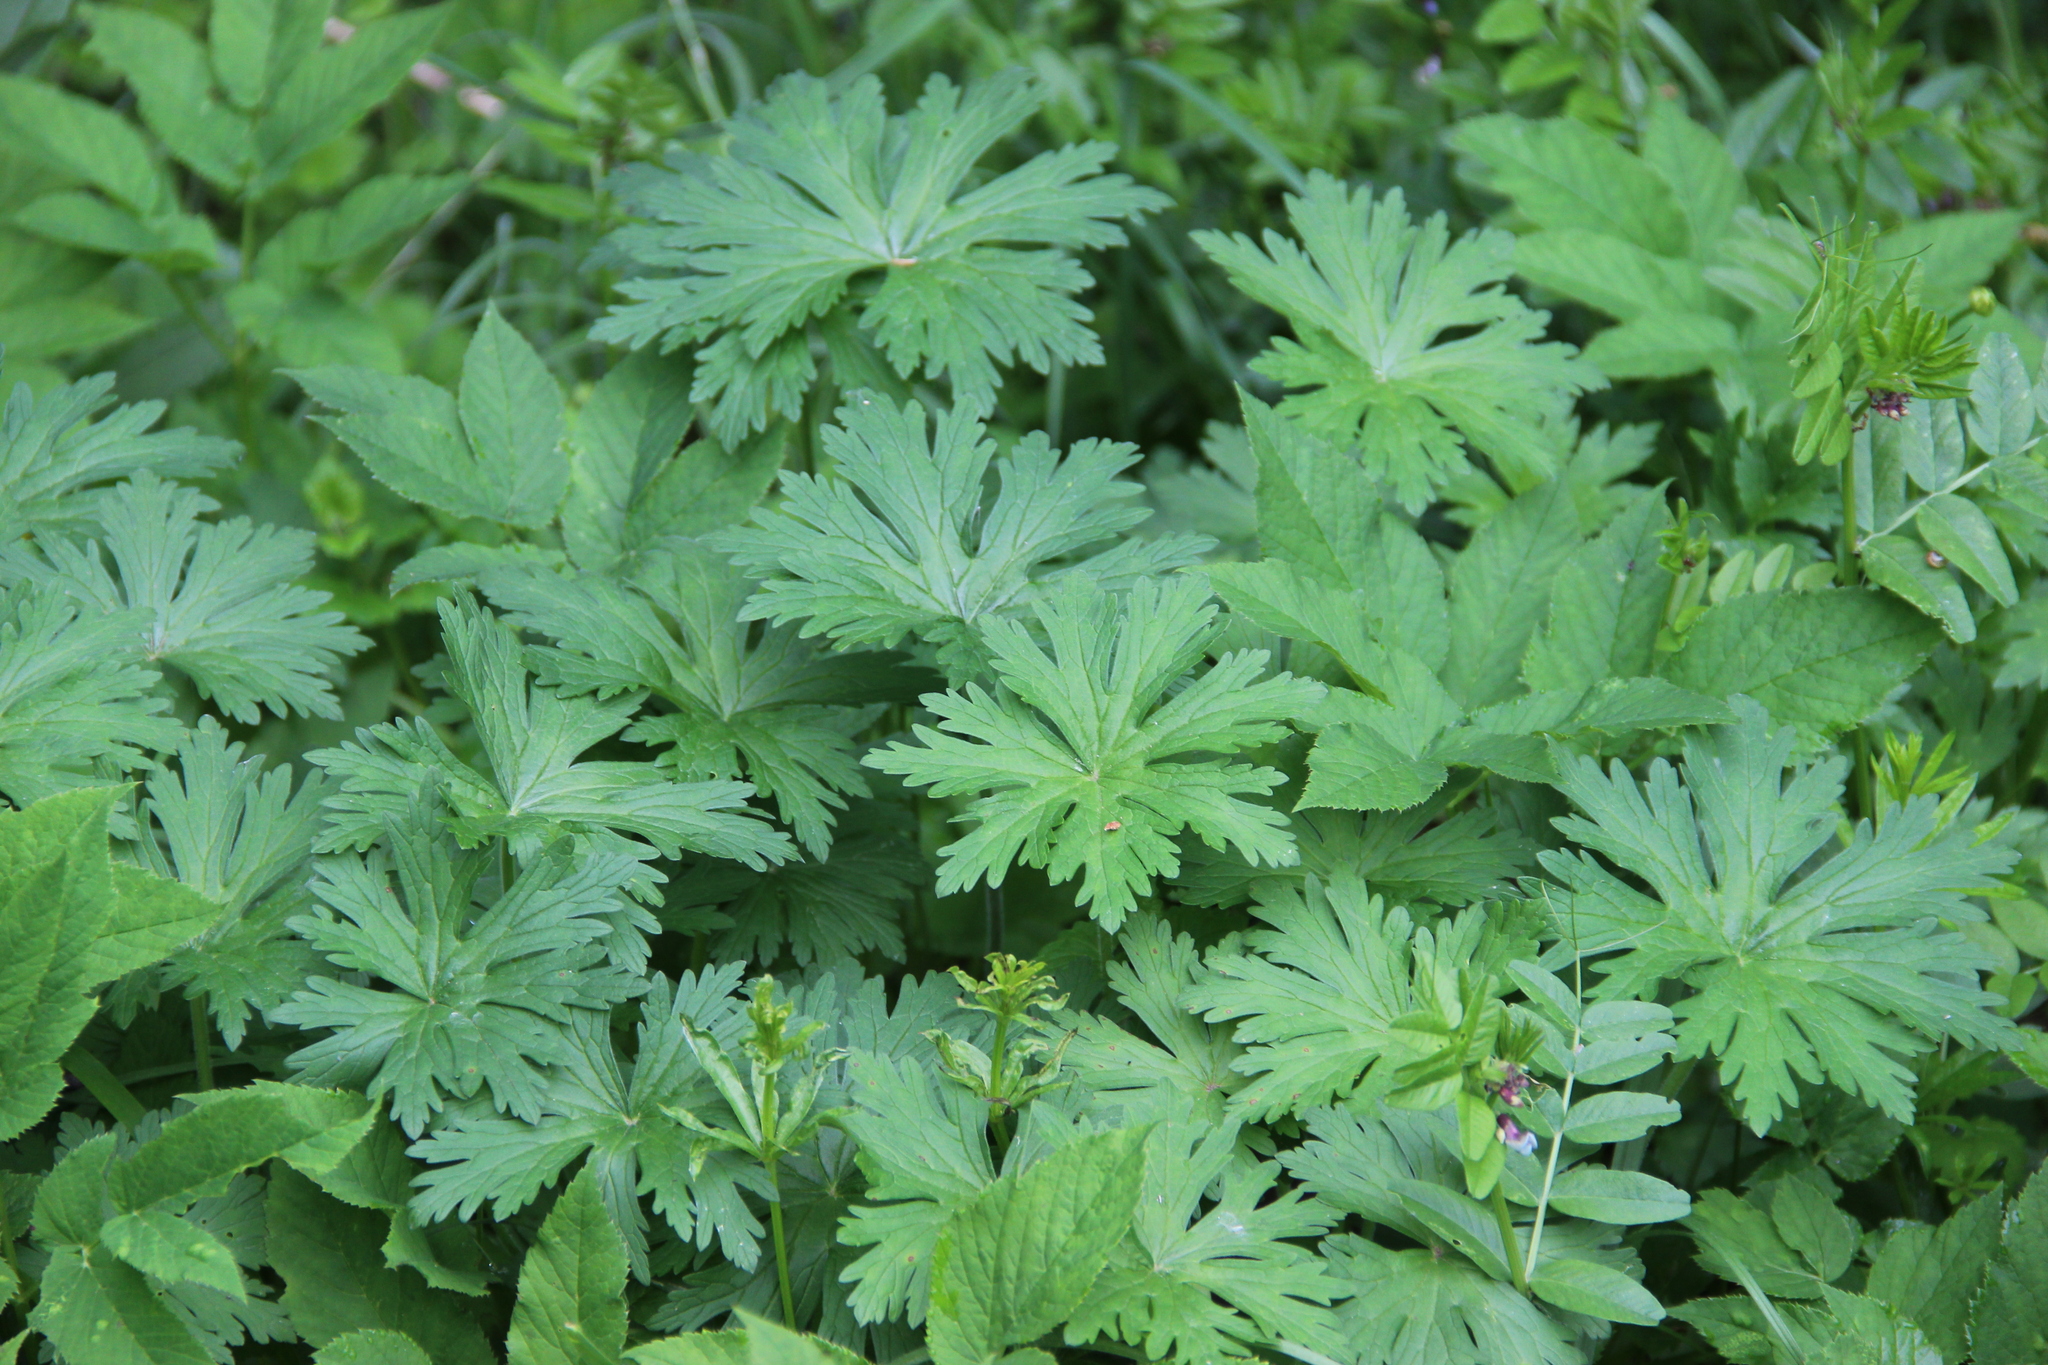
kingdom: Plantae
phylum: Tracheophyta
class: Magnoliopsida
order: Geraniales
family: Geraniaceae
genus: Geranium
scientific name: Geranium pratense
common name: Meadow crane's-bill
